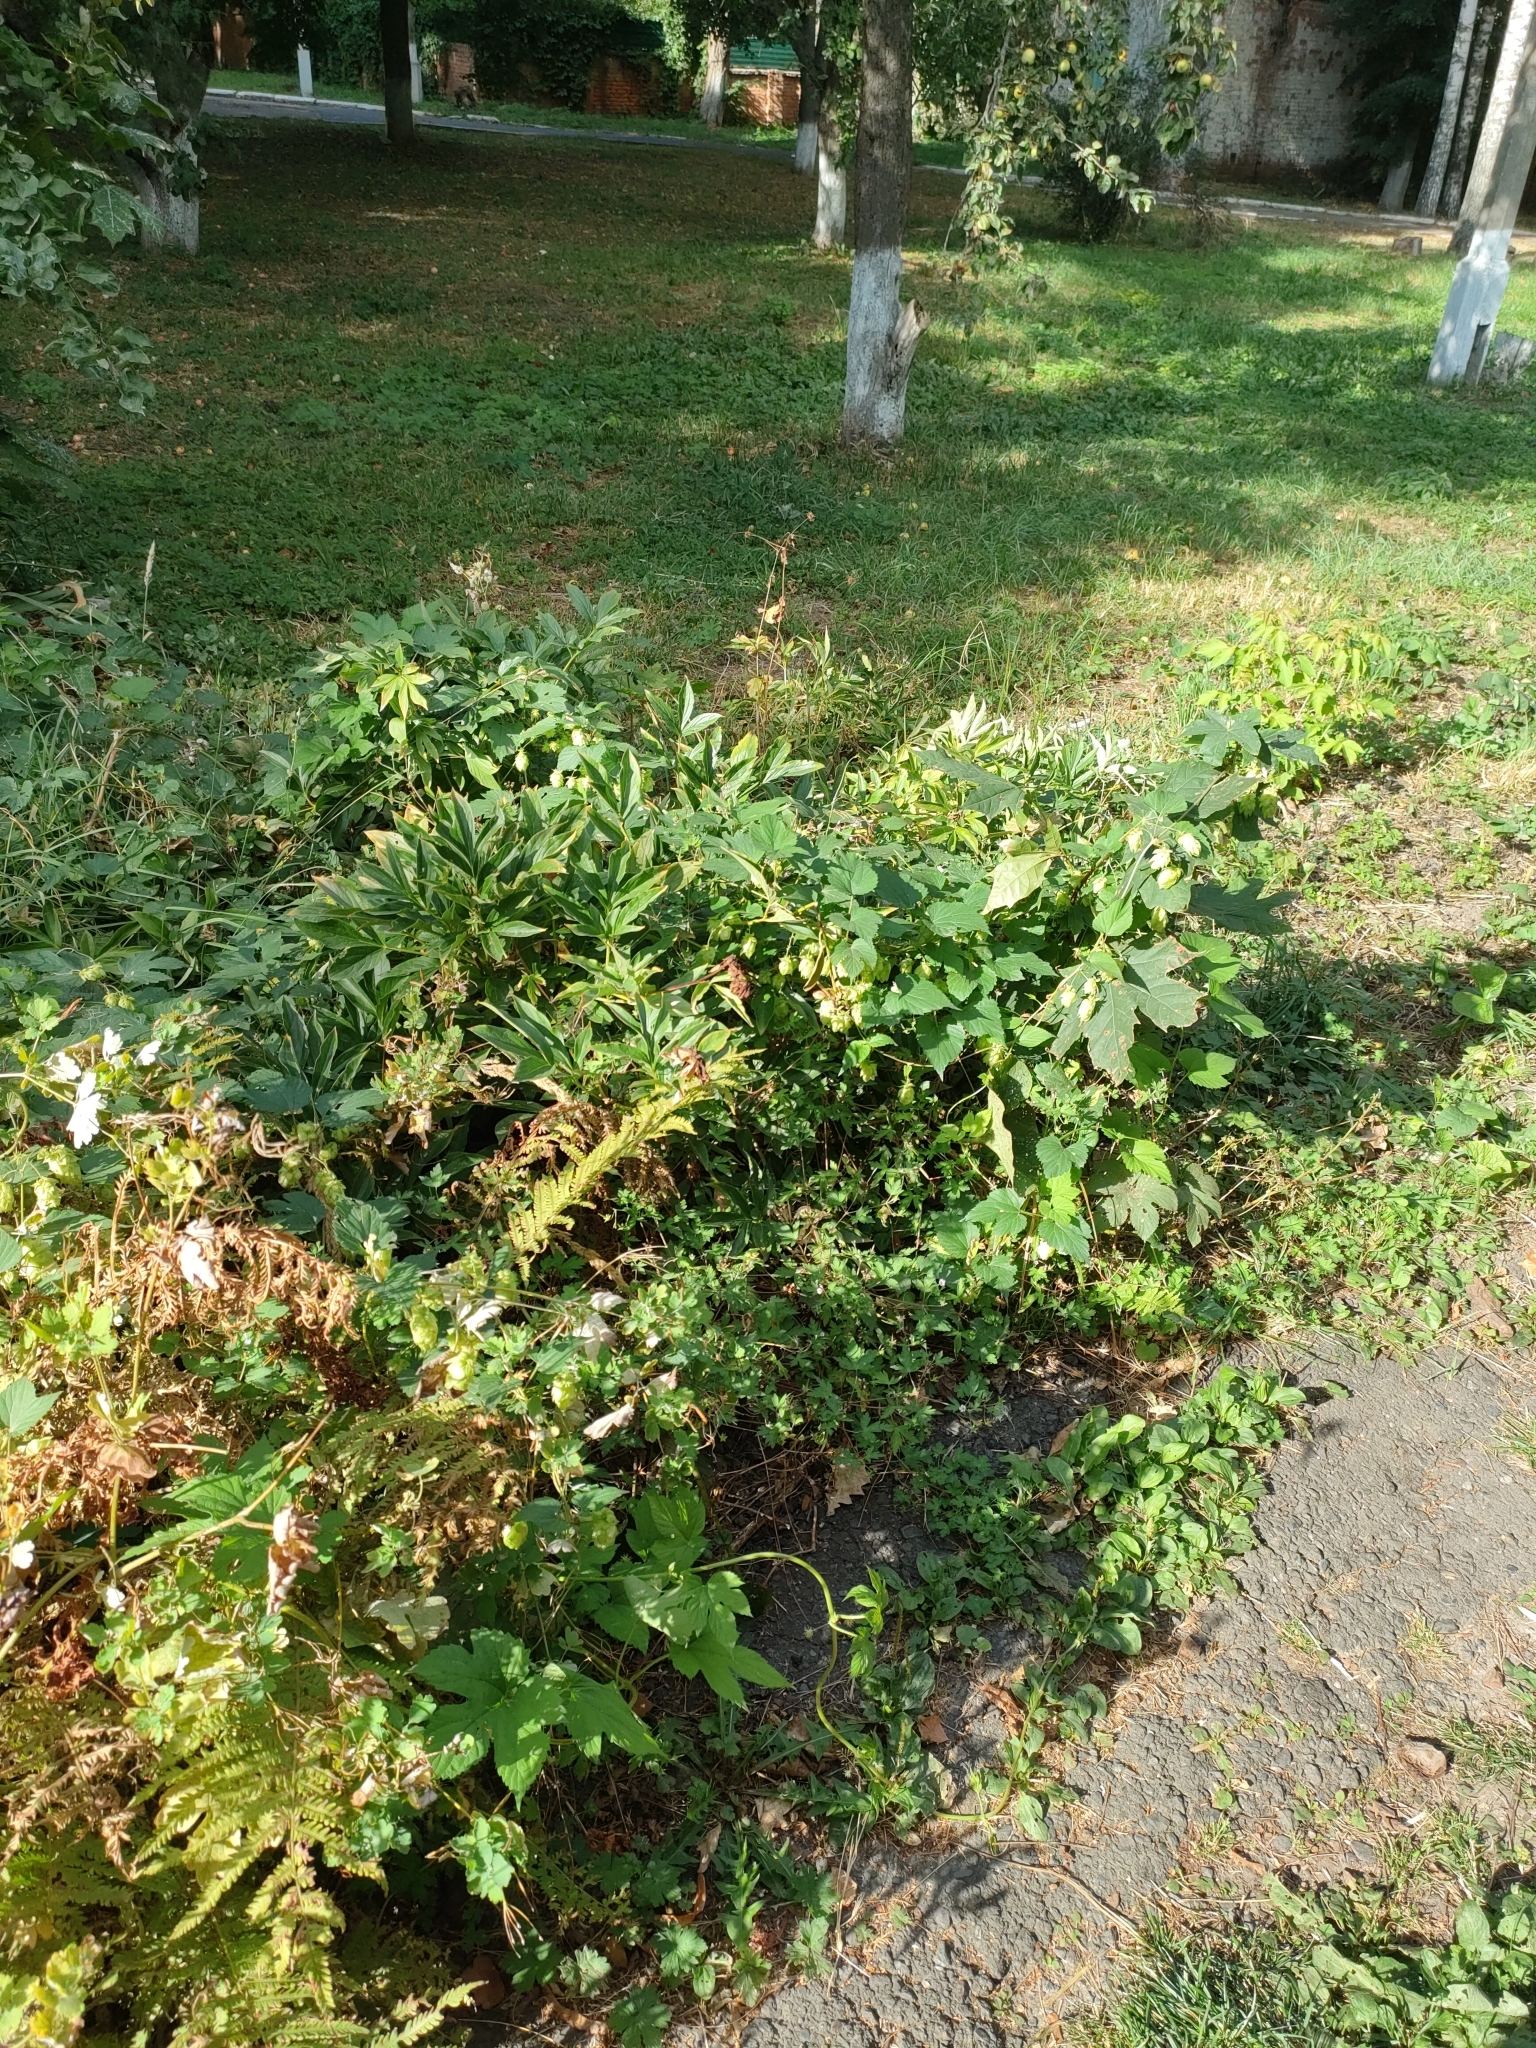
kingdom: Plantae
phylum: Tracheophyta
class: Magnoliopsida
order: Rosales
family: Cannabaceae
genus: Humulus
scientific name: Humulus lupulus
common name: Hop
